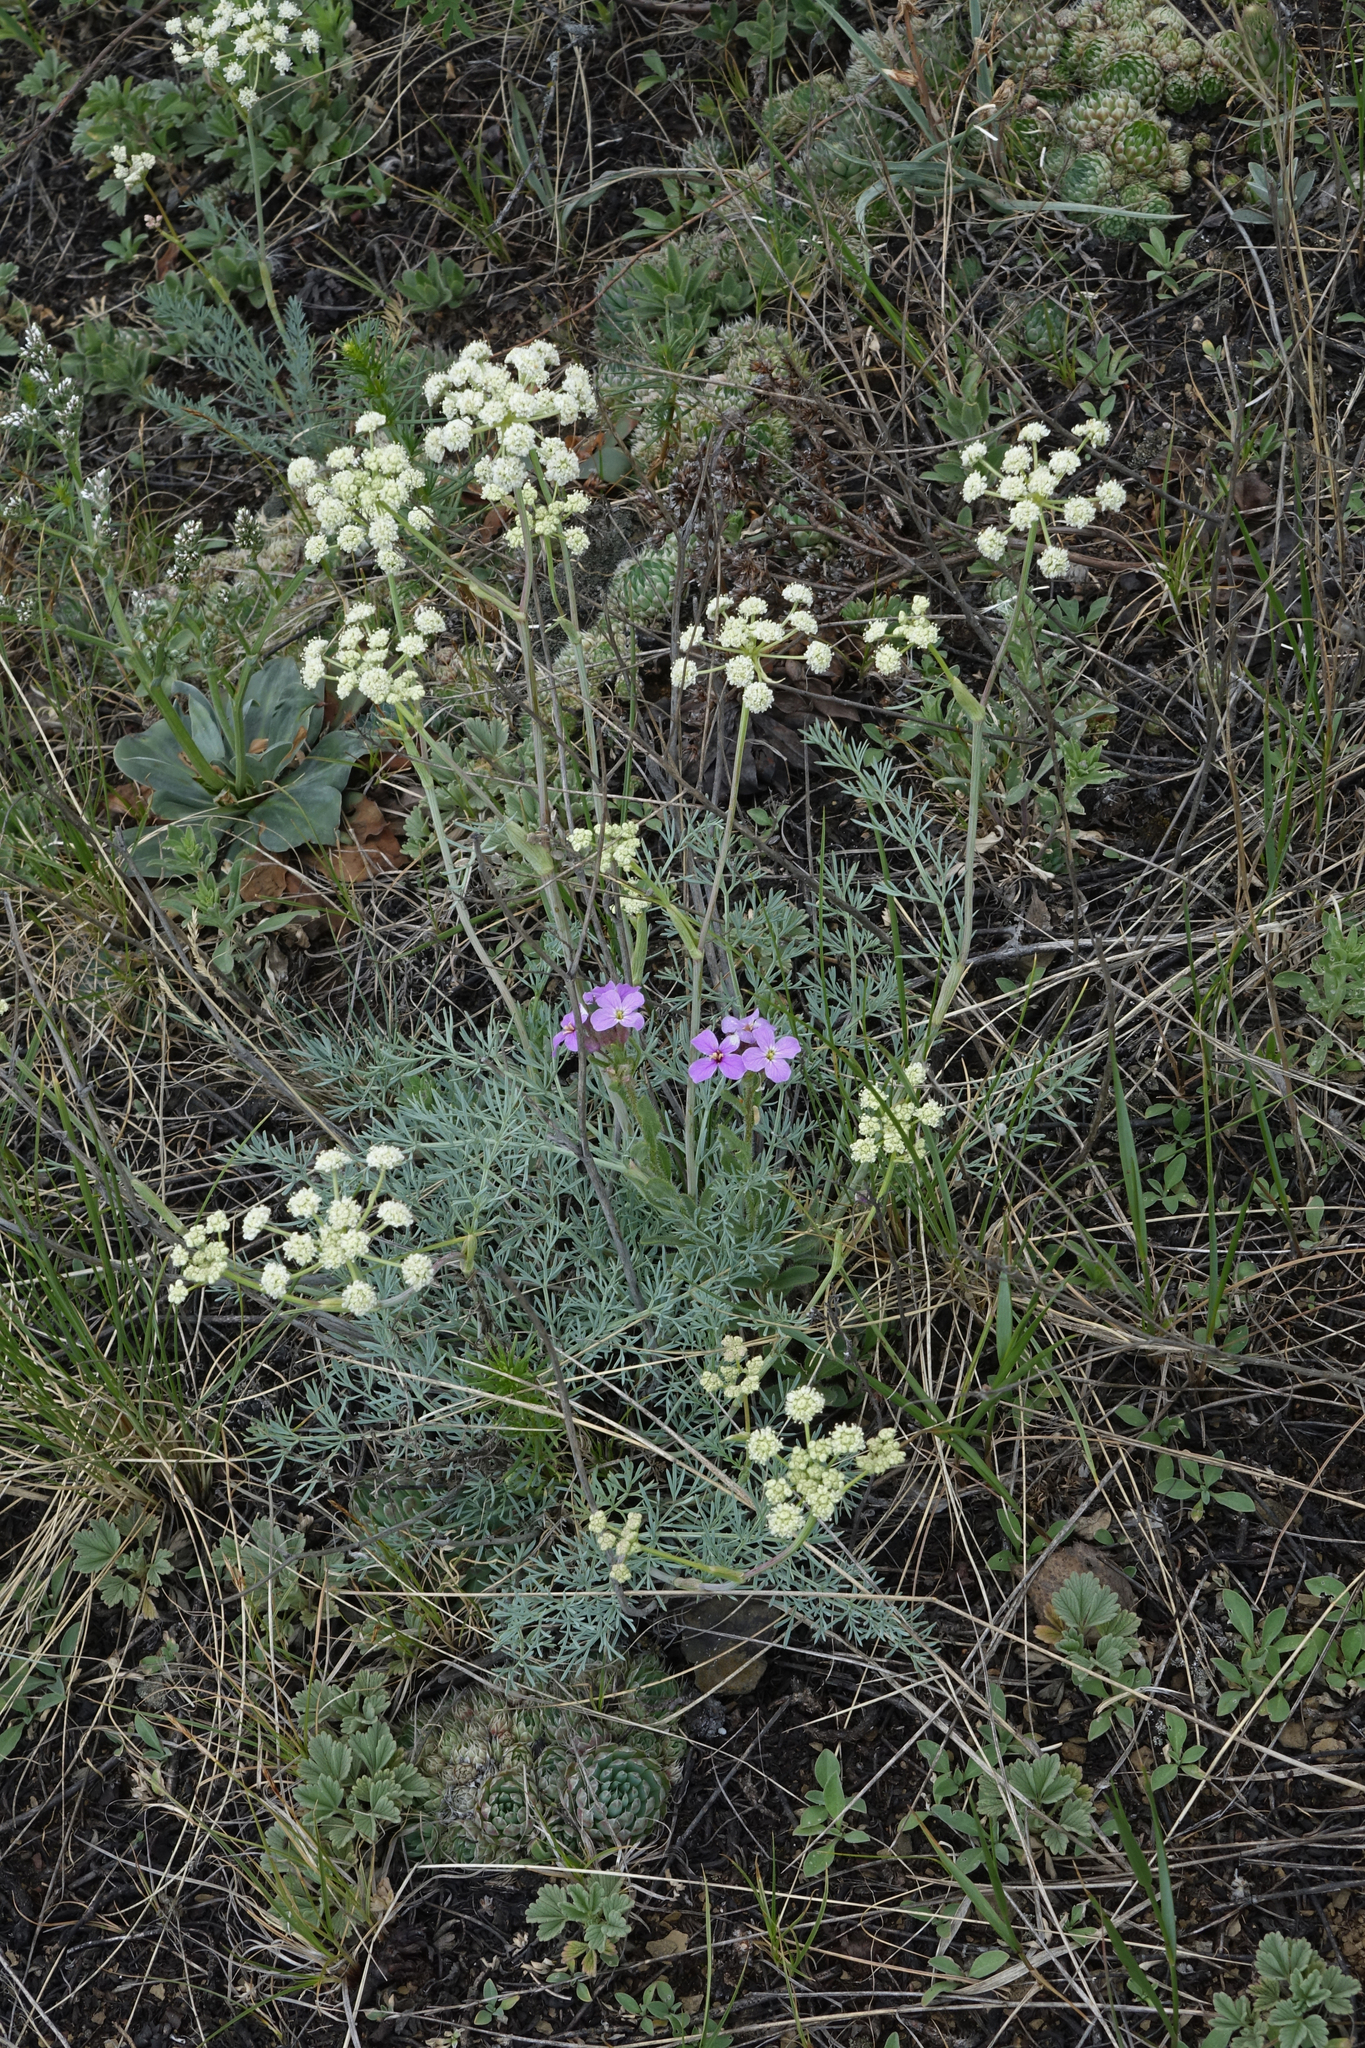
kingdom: Plantae
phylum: Tracheophyta
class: Magnoliopsida
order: Apiales
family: Apiaceae
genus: Seseli
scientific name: Seseli ledebourii
